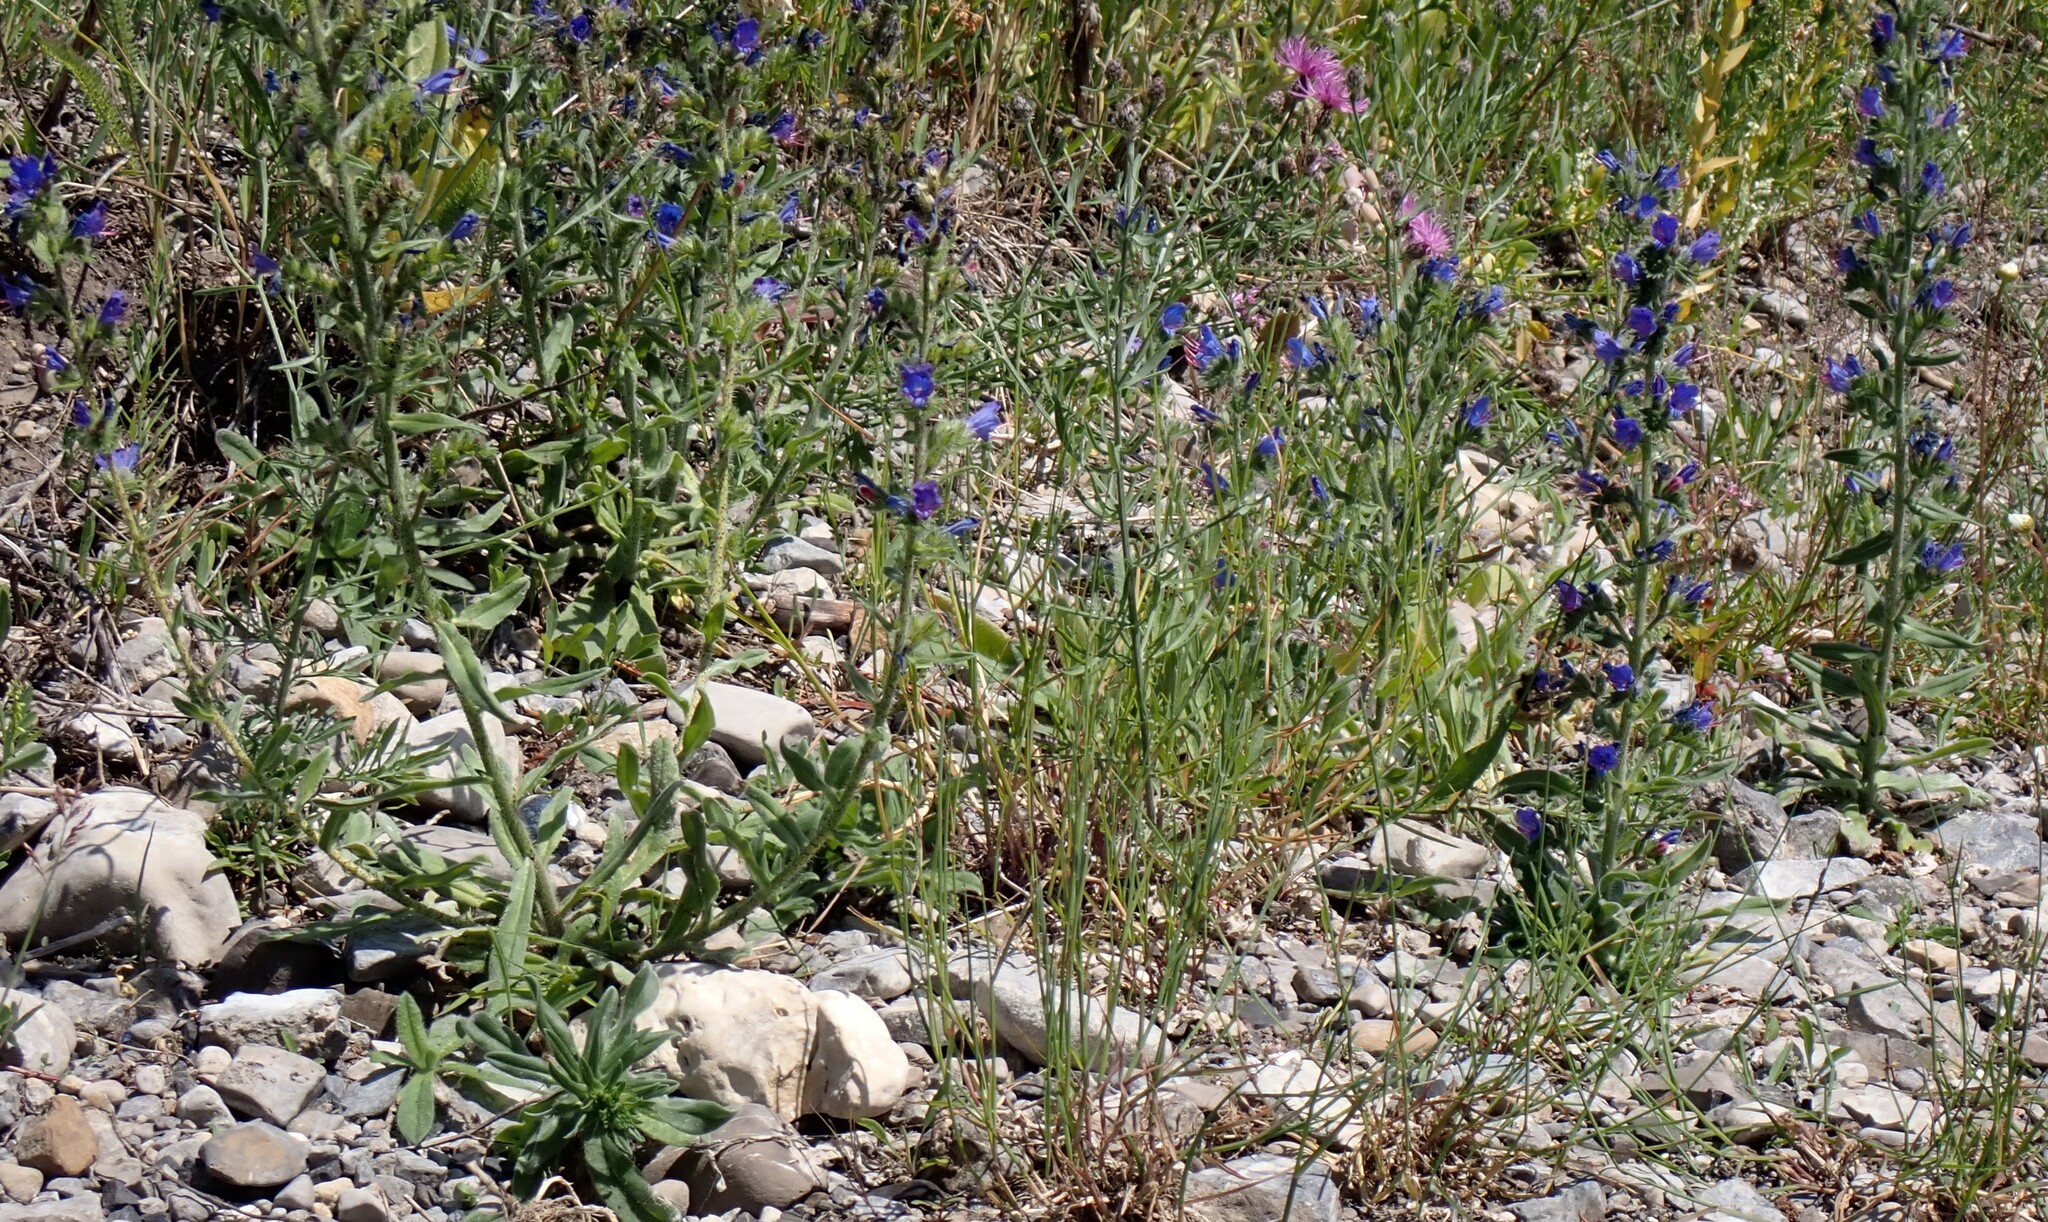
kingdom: Plantae
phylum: Tracheophyta
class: Magnoliopsida
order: Boraginales
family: Boraginaceae
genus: Echium
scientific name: Echium vulgare
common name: Common viper's bugloss
